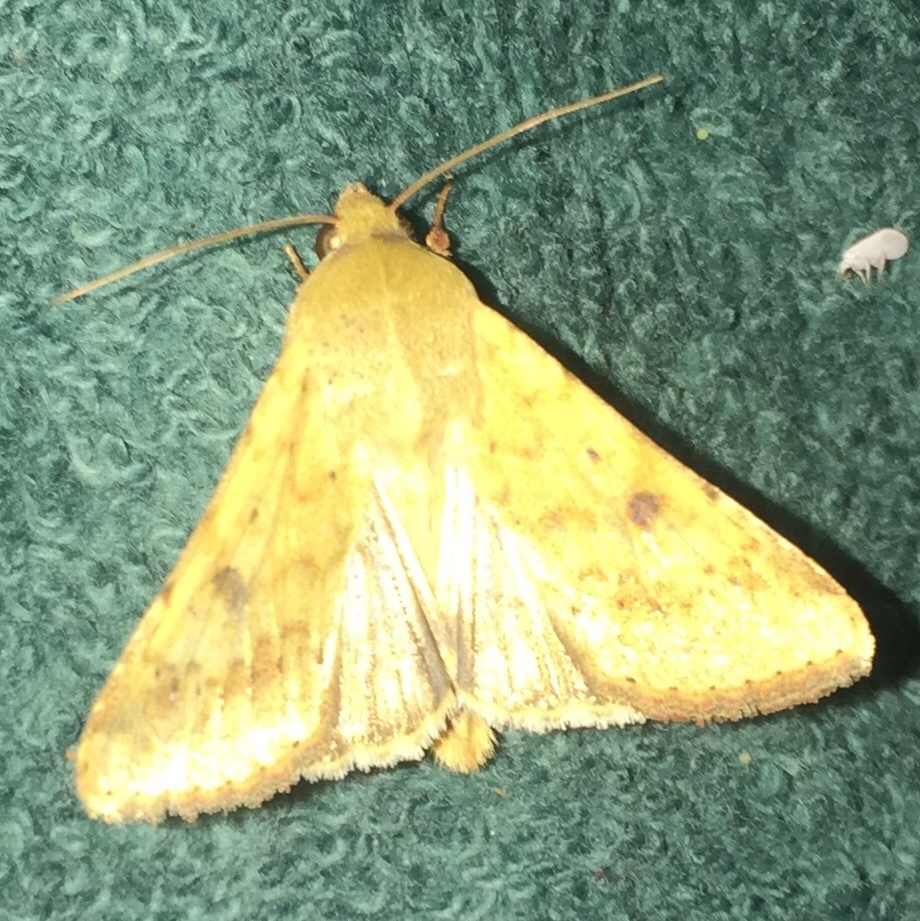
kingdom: Animalia
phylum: Arthropoda
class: Insecta
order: Lepidoptera
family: Noctuidae
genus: Helicoverpa
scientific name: Helicoverpa zea
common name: Bollworm
